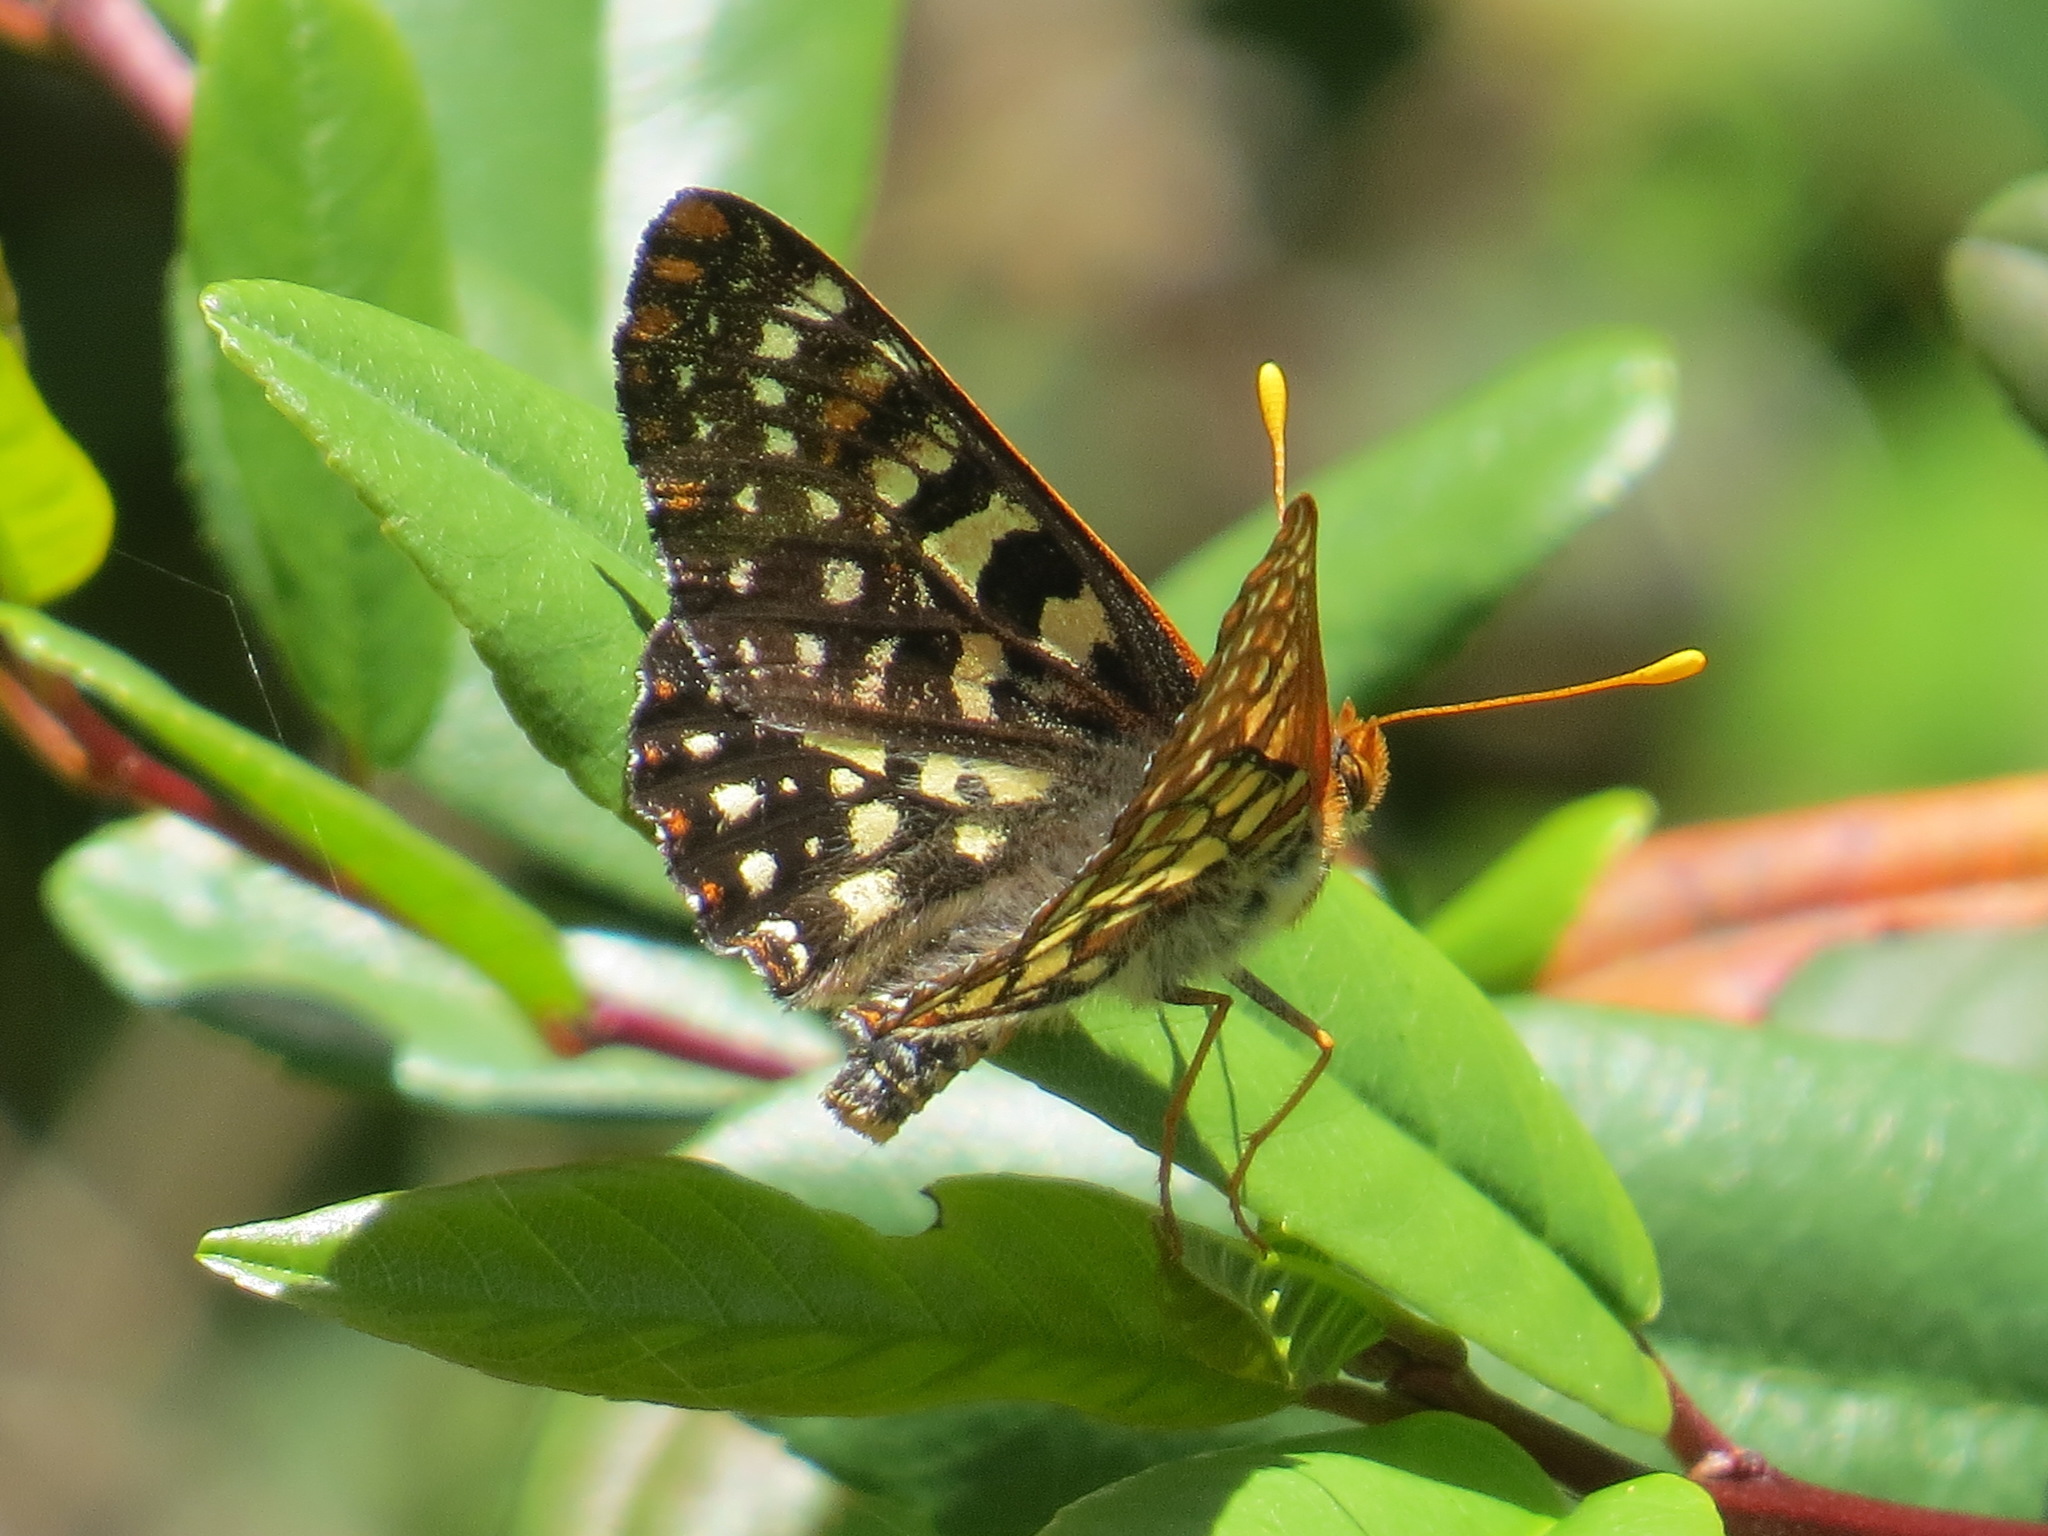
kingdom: Animalia
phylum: Arthropoda
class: Insecta
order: Lepidoptera
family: Nymphalidae
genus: Occidryas
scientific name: Occidryas chalcedona
